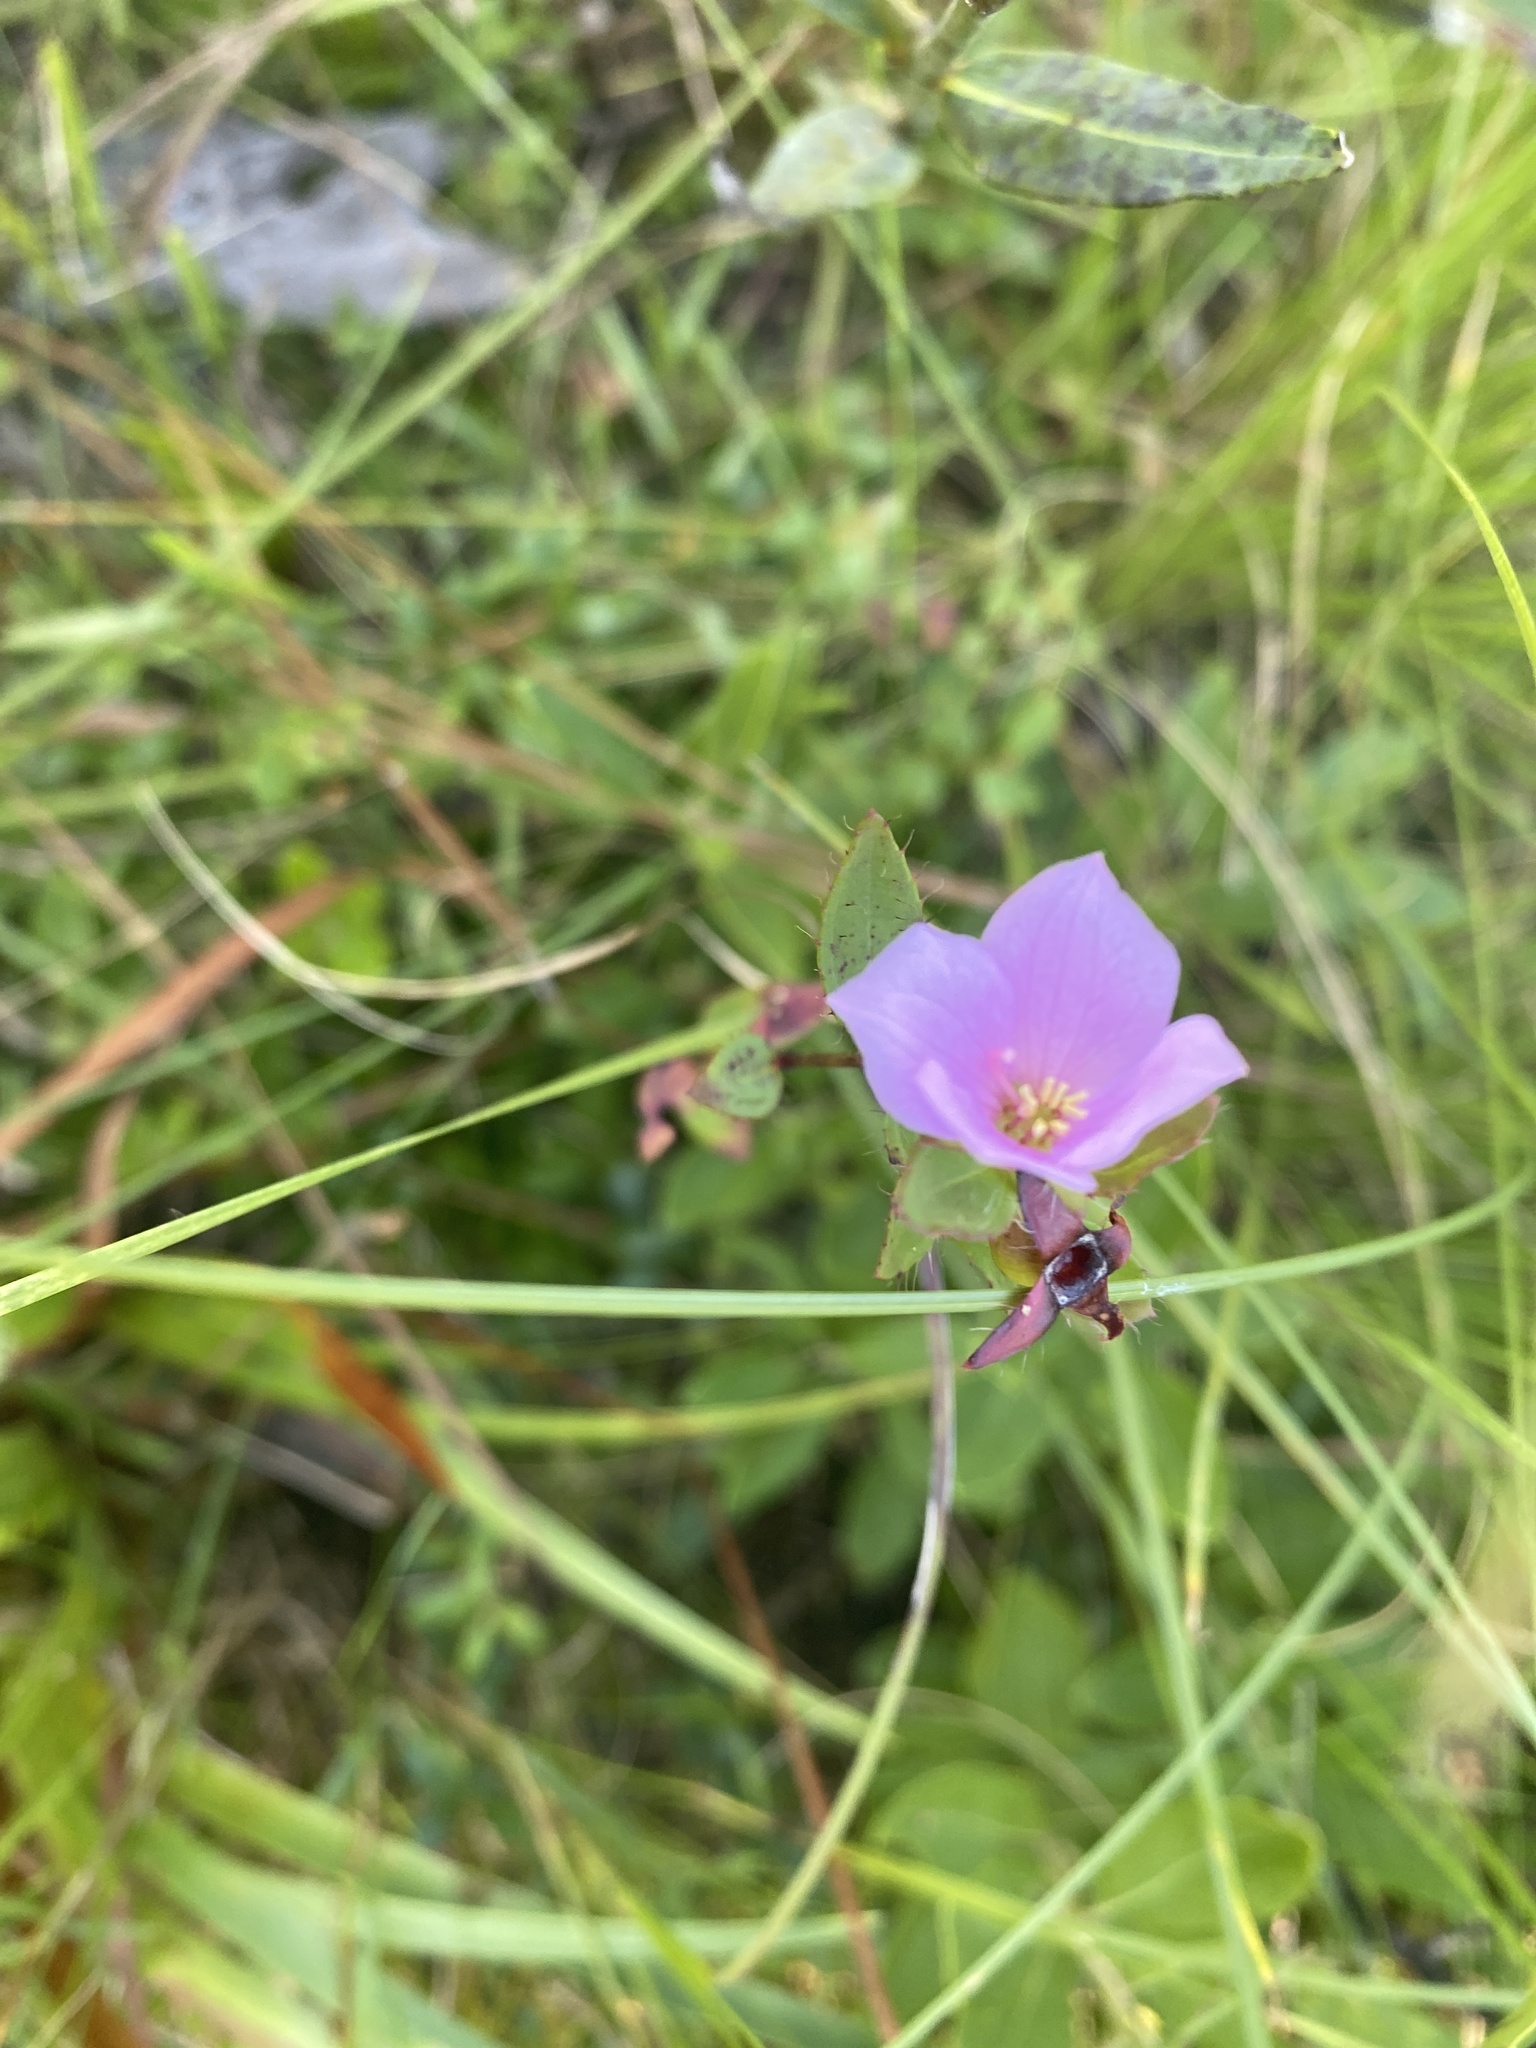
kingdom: Plantae
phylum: Tracheophyta
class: Magnoliopsida
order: Myrtales
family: Melastomataceae
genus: Rhexia
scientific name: Rhexia petiolata
